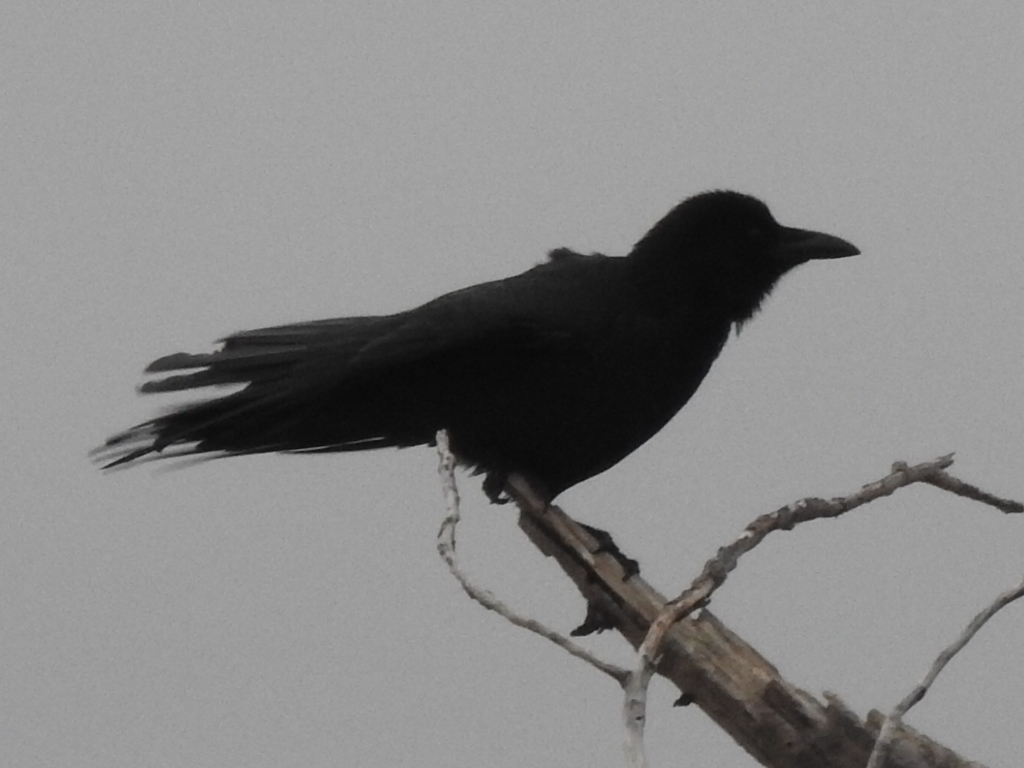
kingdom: Animalia
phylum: Chordata
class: Aves
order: Passeriformes
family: Corvidae
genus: Corvus
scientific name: Corvus brachyrhynchos
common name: American crow
